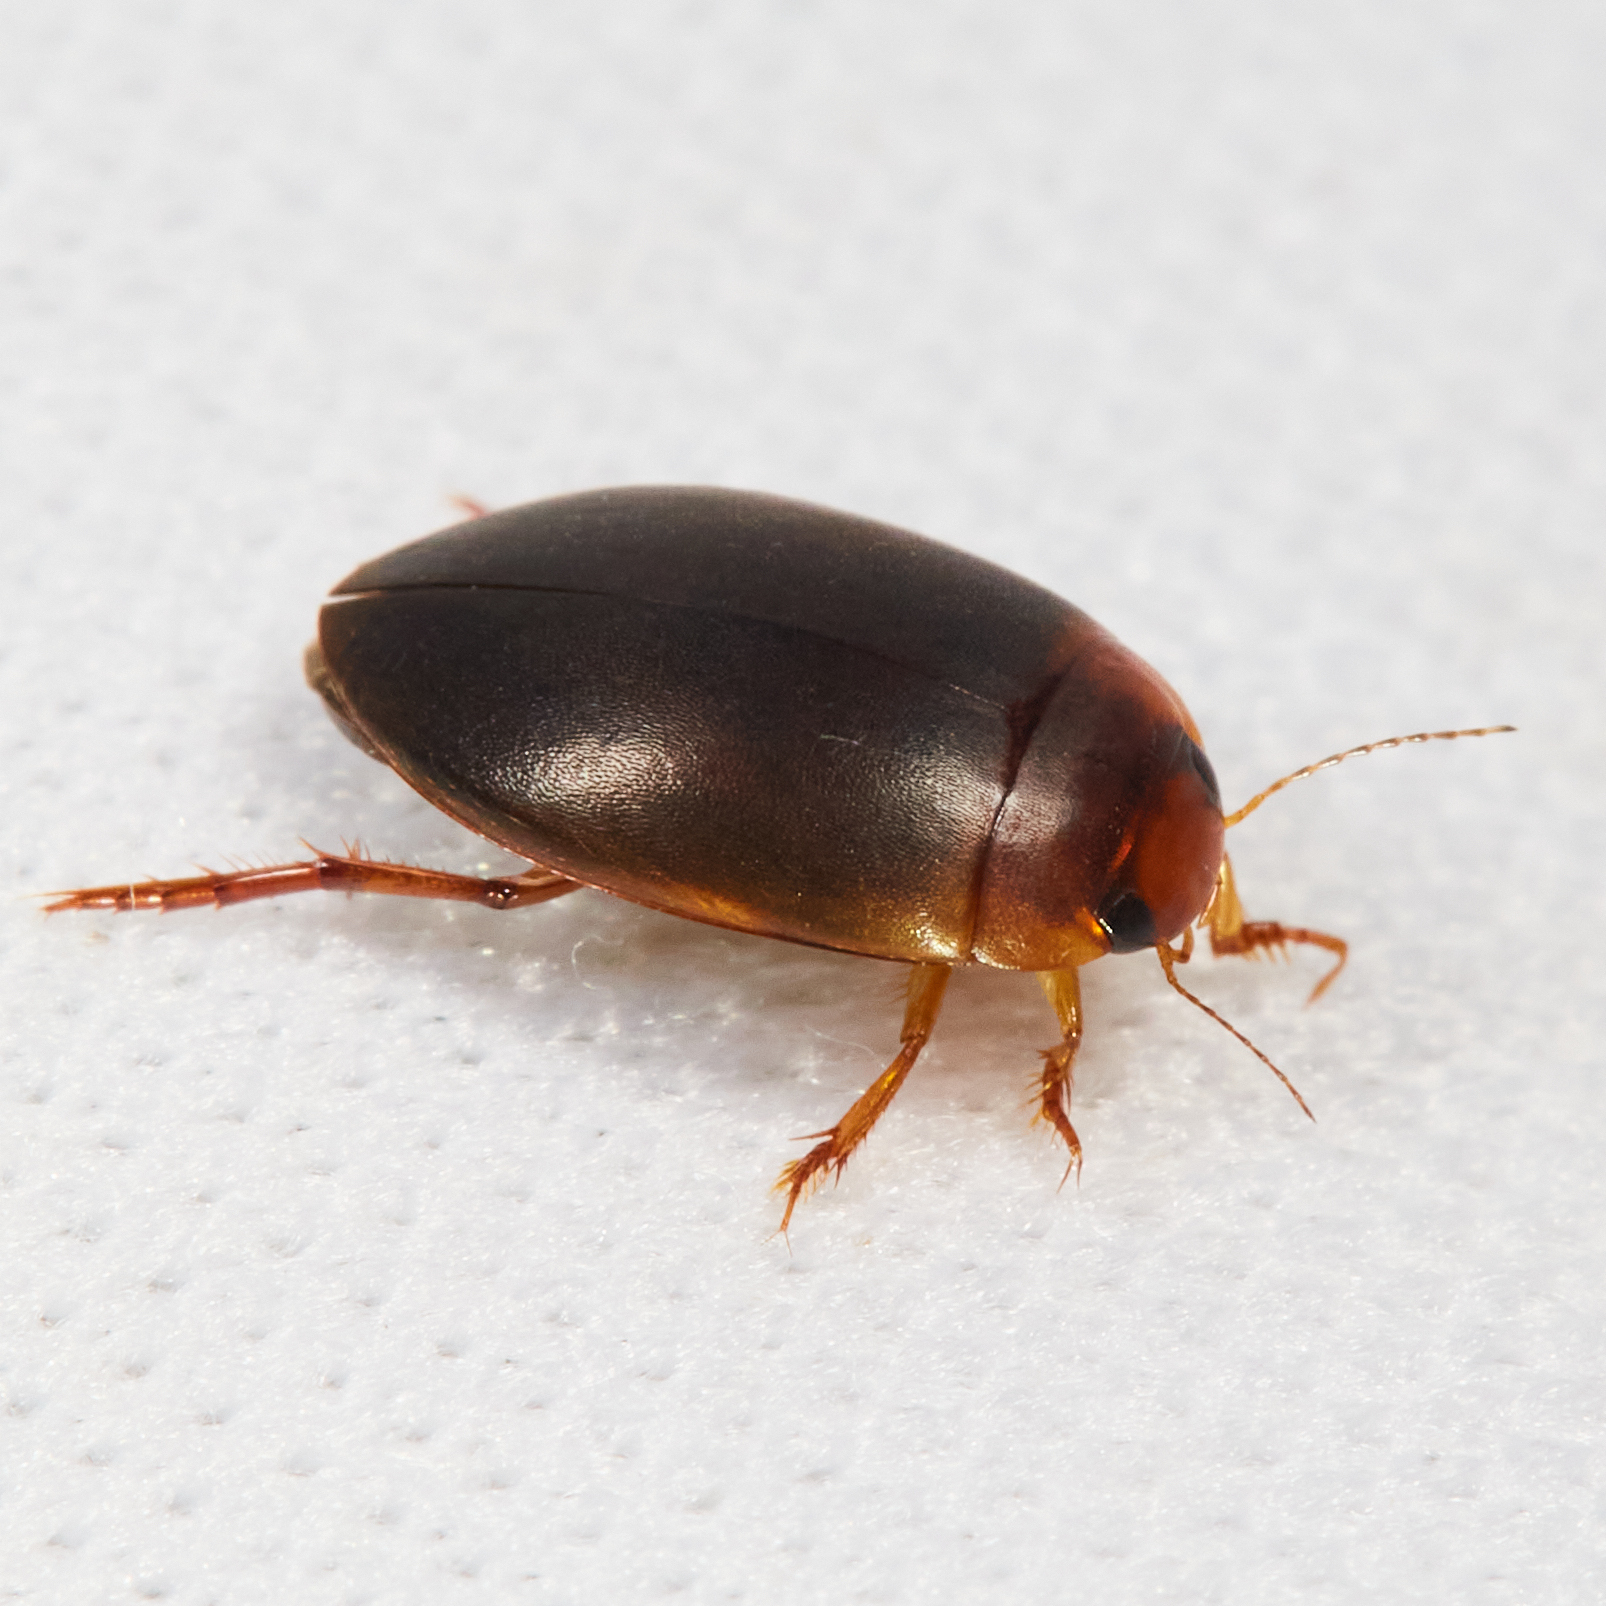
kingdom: Animalia
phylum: Arthropoda
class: Insecta
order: Coleoptera
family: Dytiscidae
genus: Agabetes
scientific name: Agabetes acuductus
